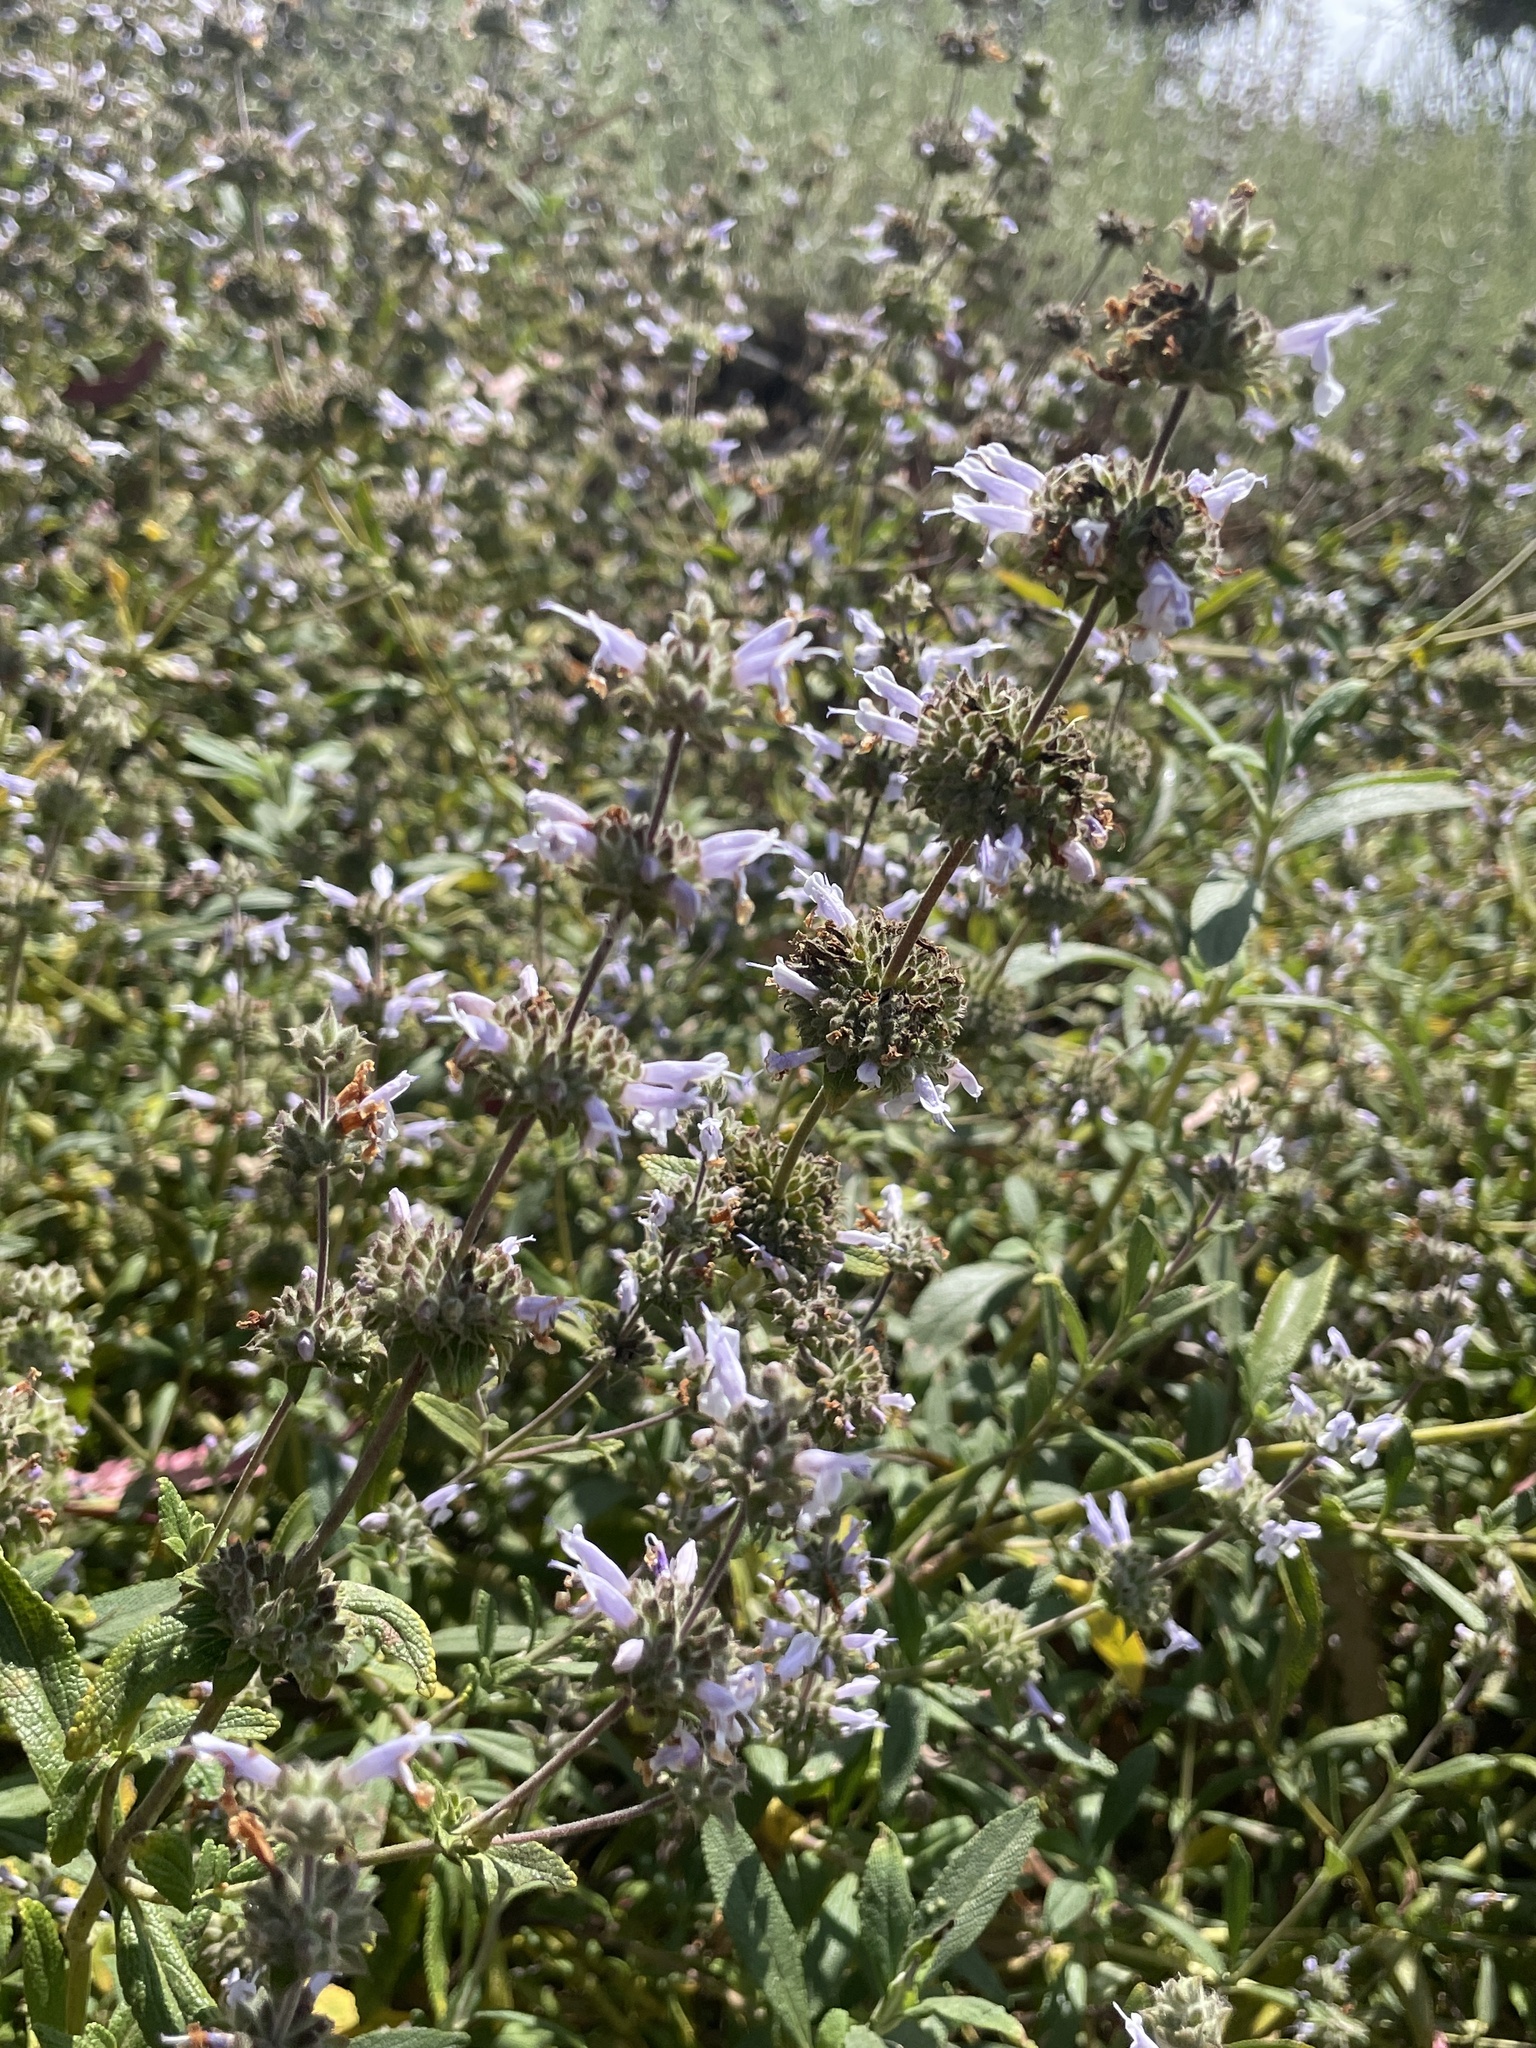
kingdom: Plantae
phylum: Tracheophyta
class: Magnoliopsida
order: Lamiales
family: Lamiaceae
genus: Salvia
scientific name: Salvia mellifera
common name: Black sage
